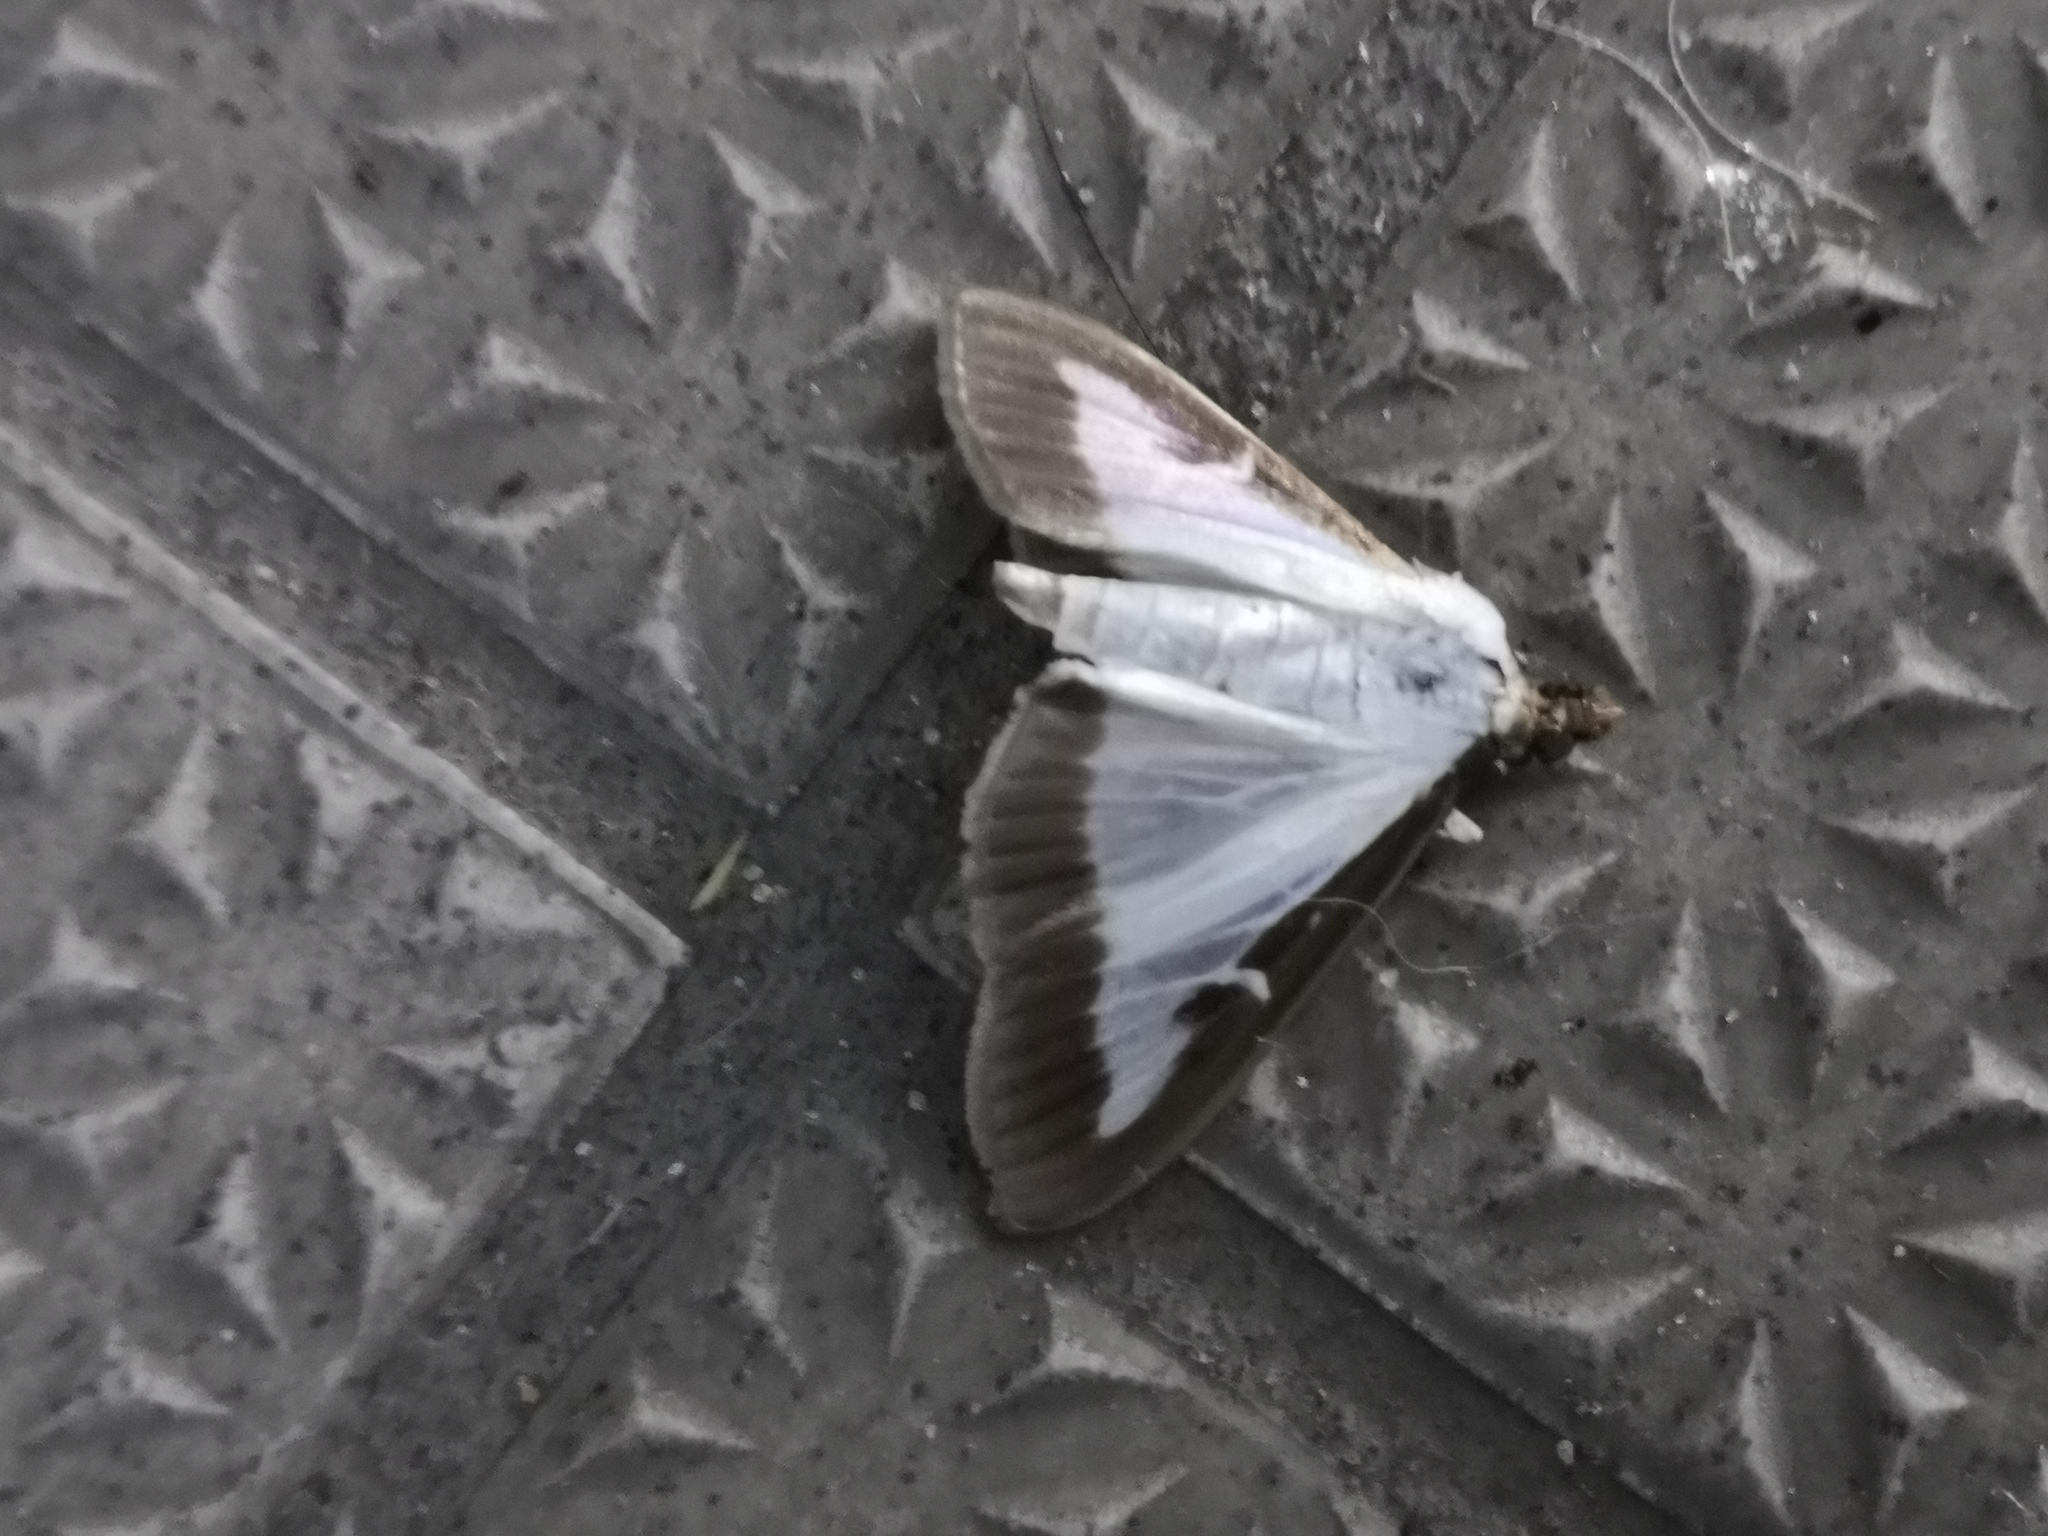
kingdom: Animalia
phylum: Arthropoda
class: Insecta
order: Lepidoptera
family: Crambidae
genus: Cydalima
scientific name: Cydalima perspectalis
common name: Box tree moth
